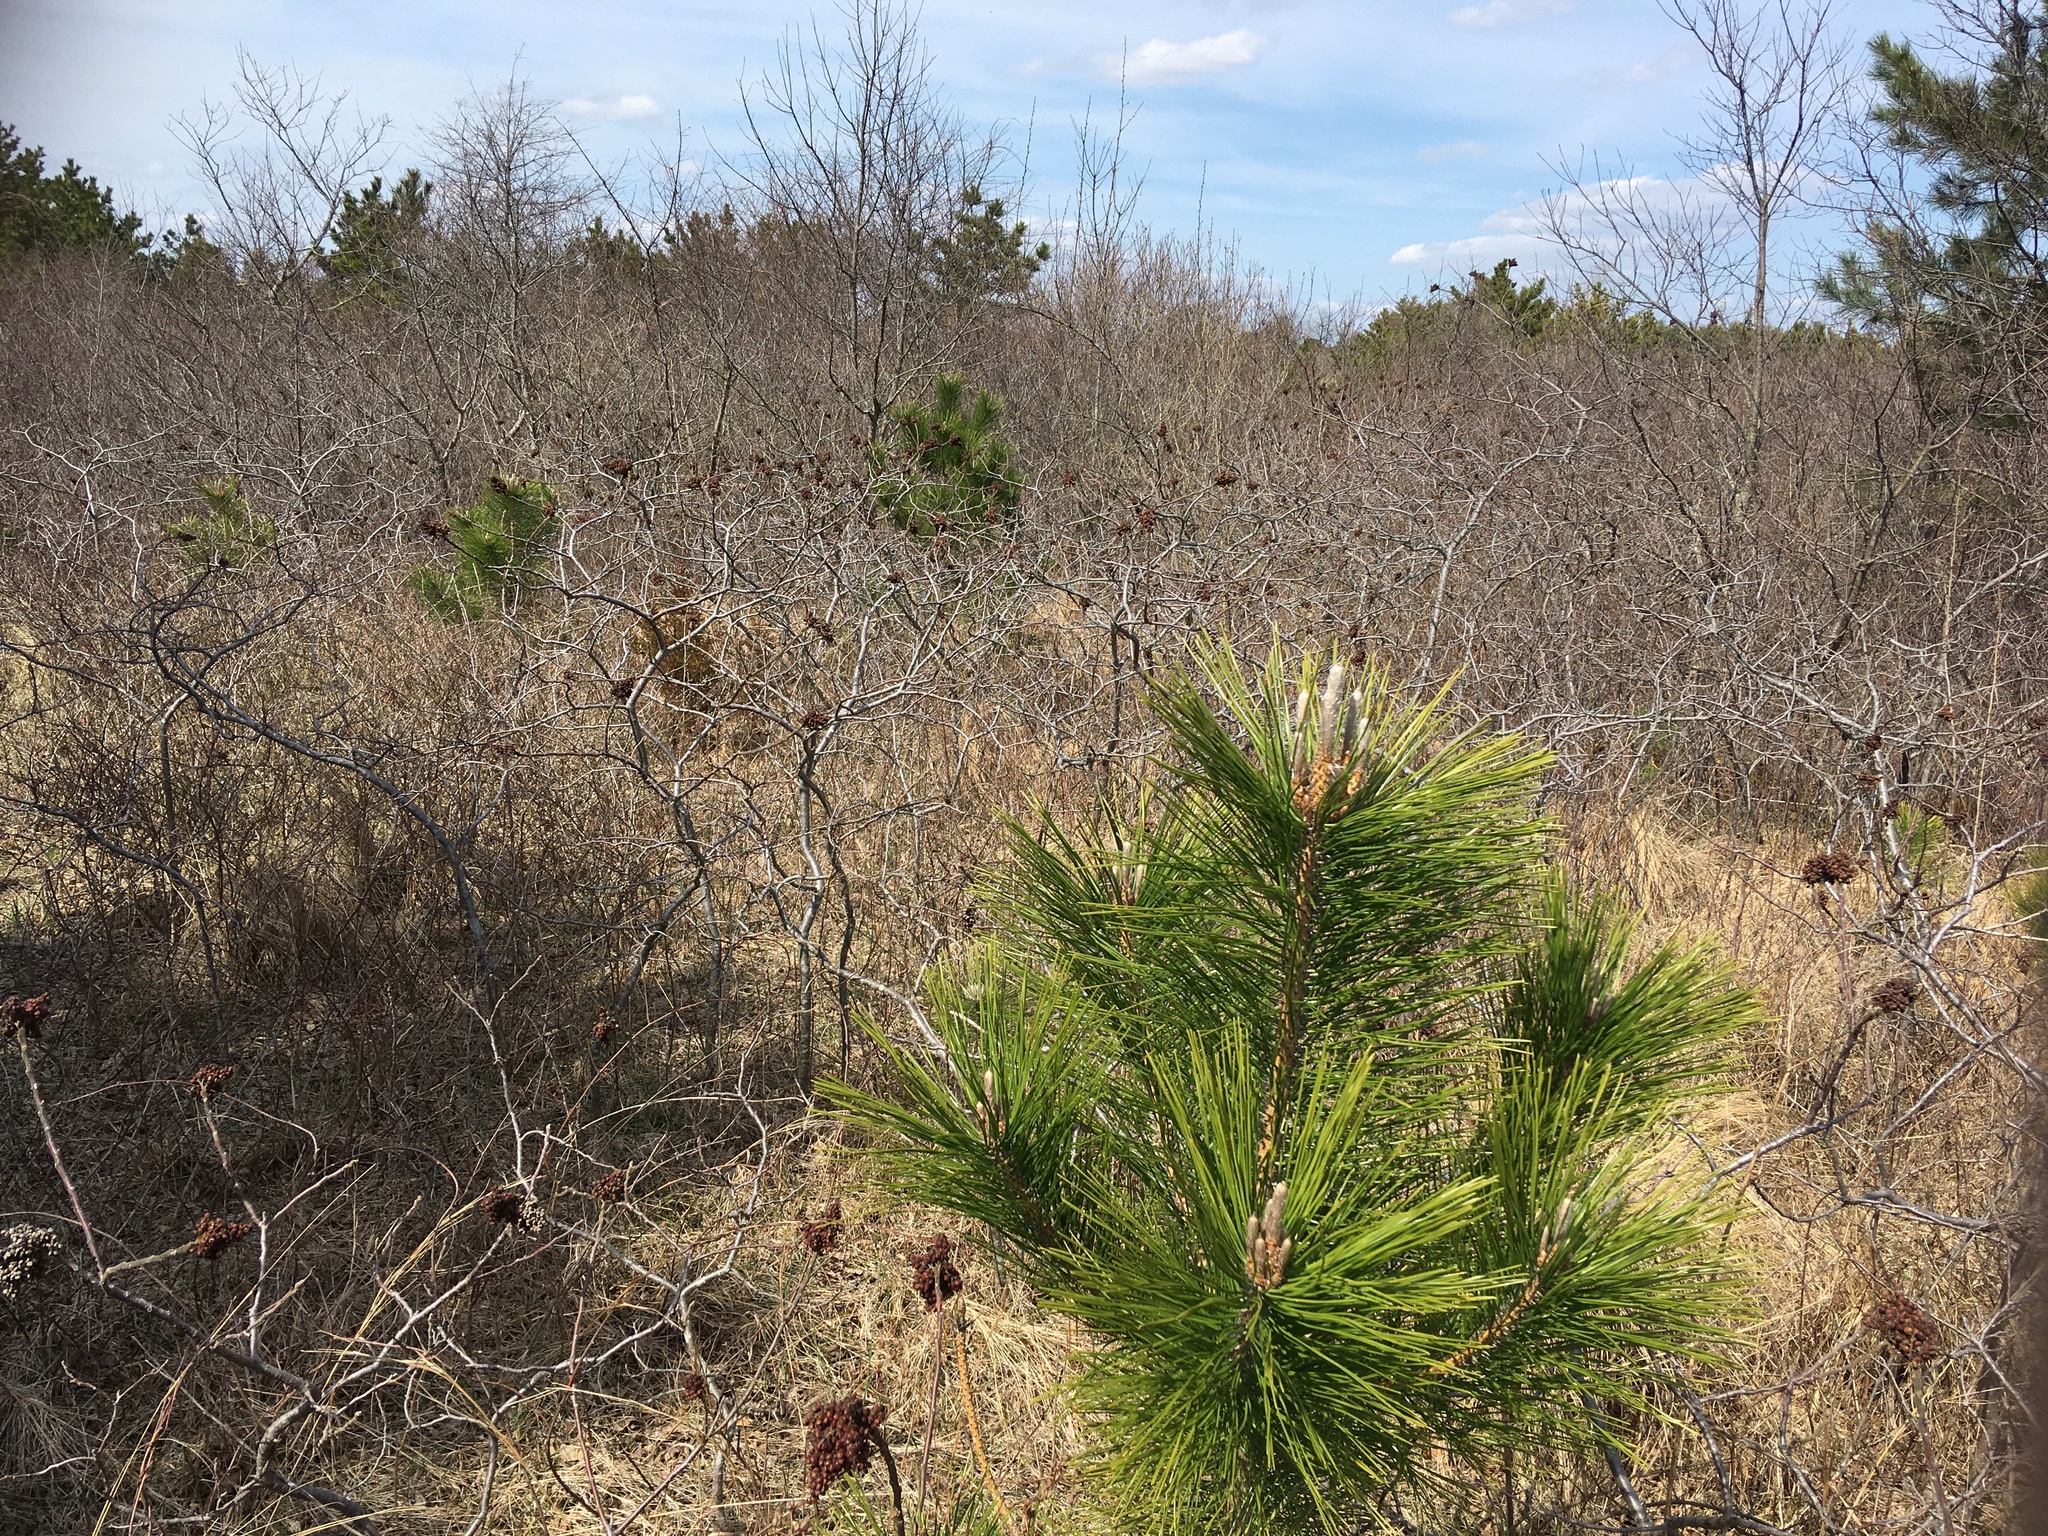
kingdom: Plantae
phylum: Tracheophyta
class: Pinopsida
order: Pinales
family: Pinaceae
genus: Pinus
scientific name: Pinus resinosa
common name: Norway pine
